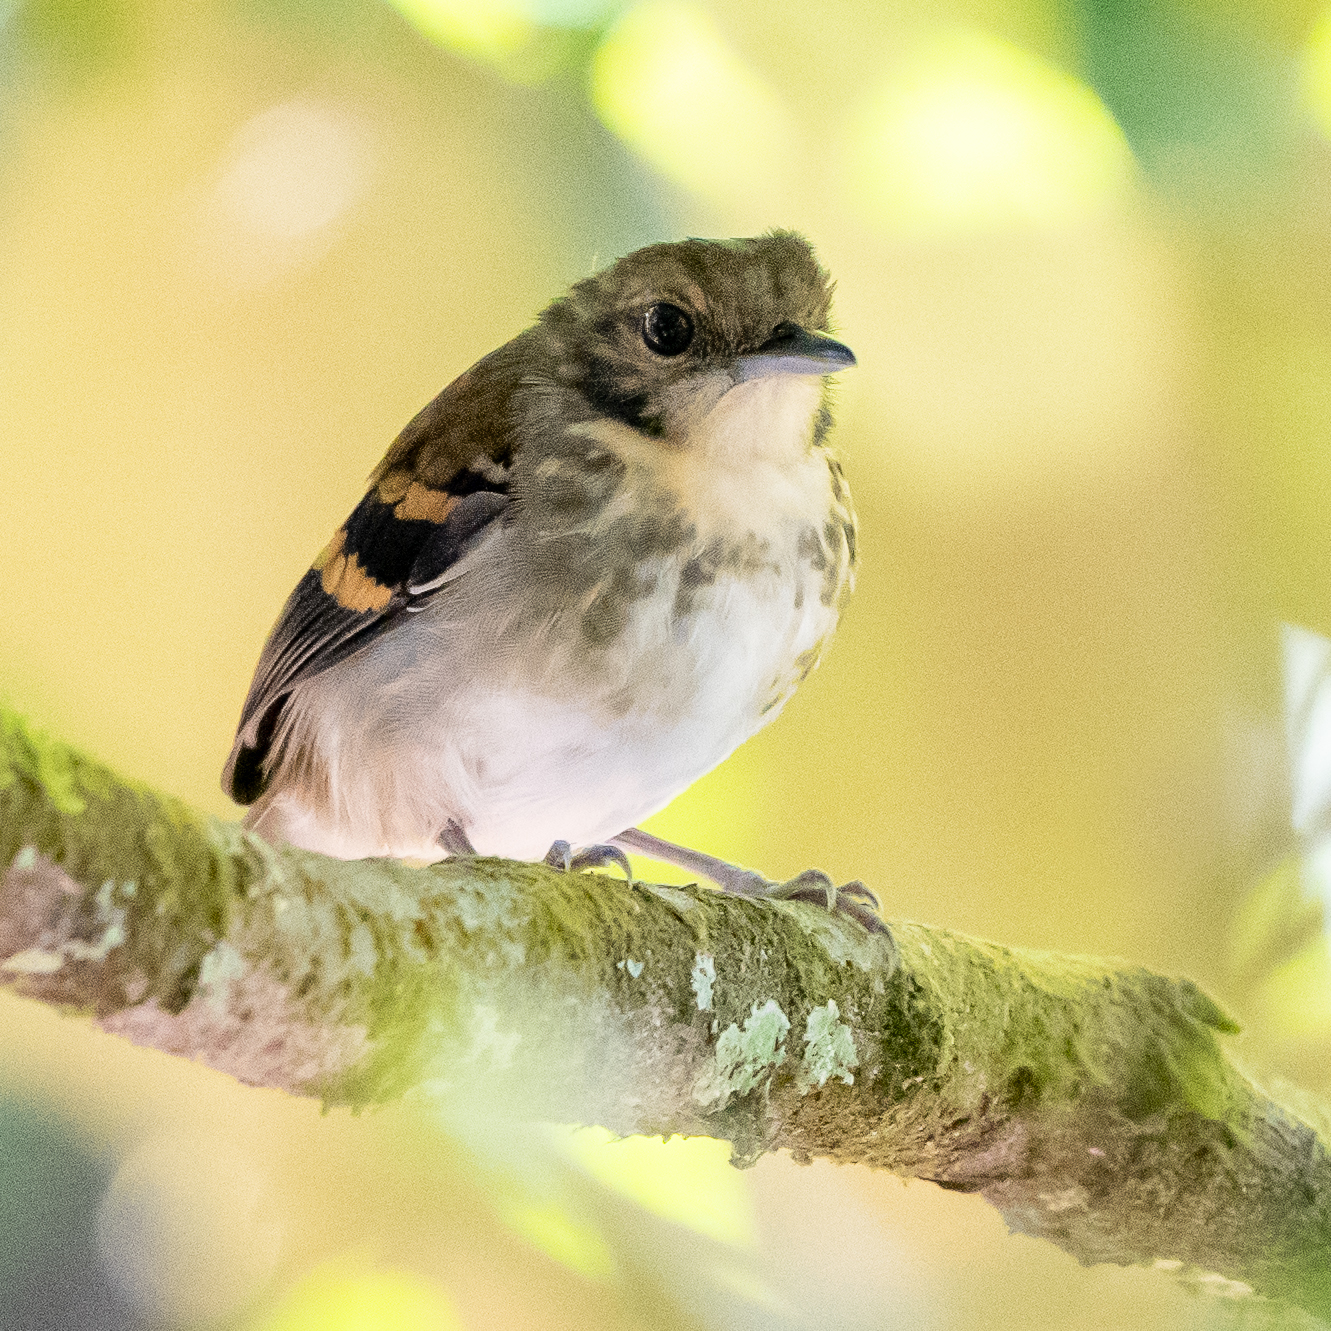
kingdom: Animalia
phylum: Chordata
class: Aves
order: Passeriformes
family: Thamnophilidae
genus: Hylophylax
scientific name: Hylophylax naevioides
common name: Spotted antbird
